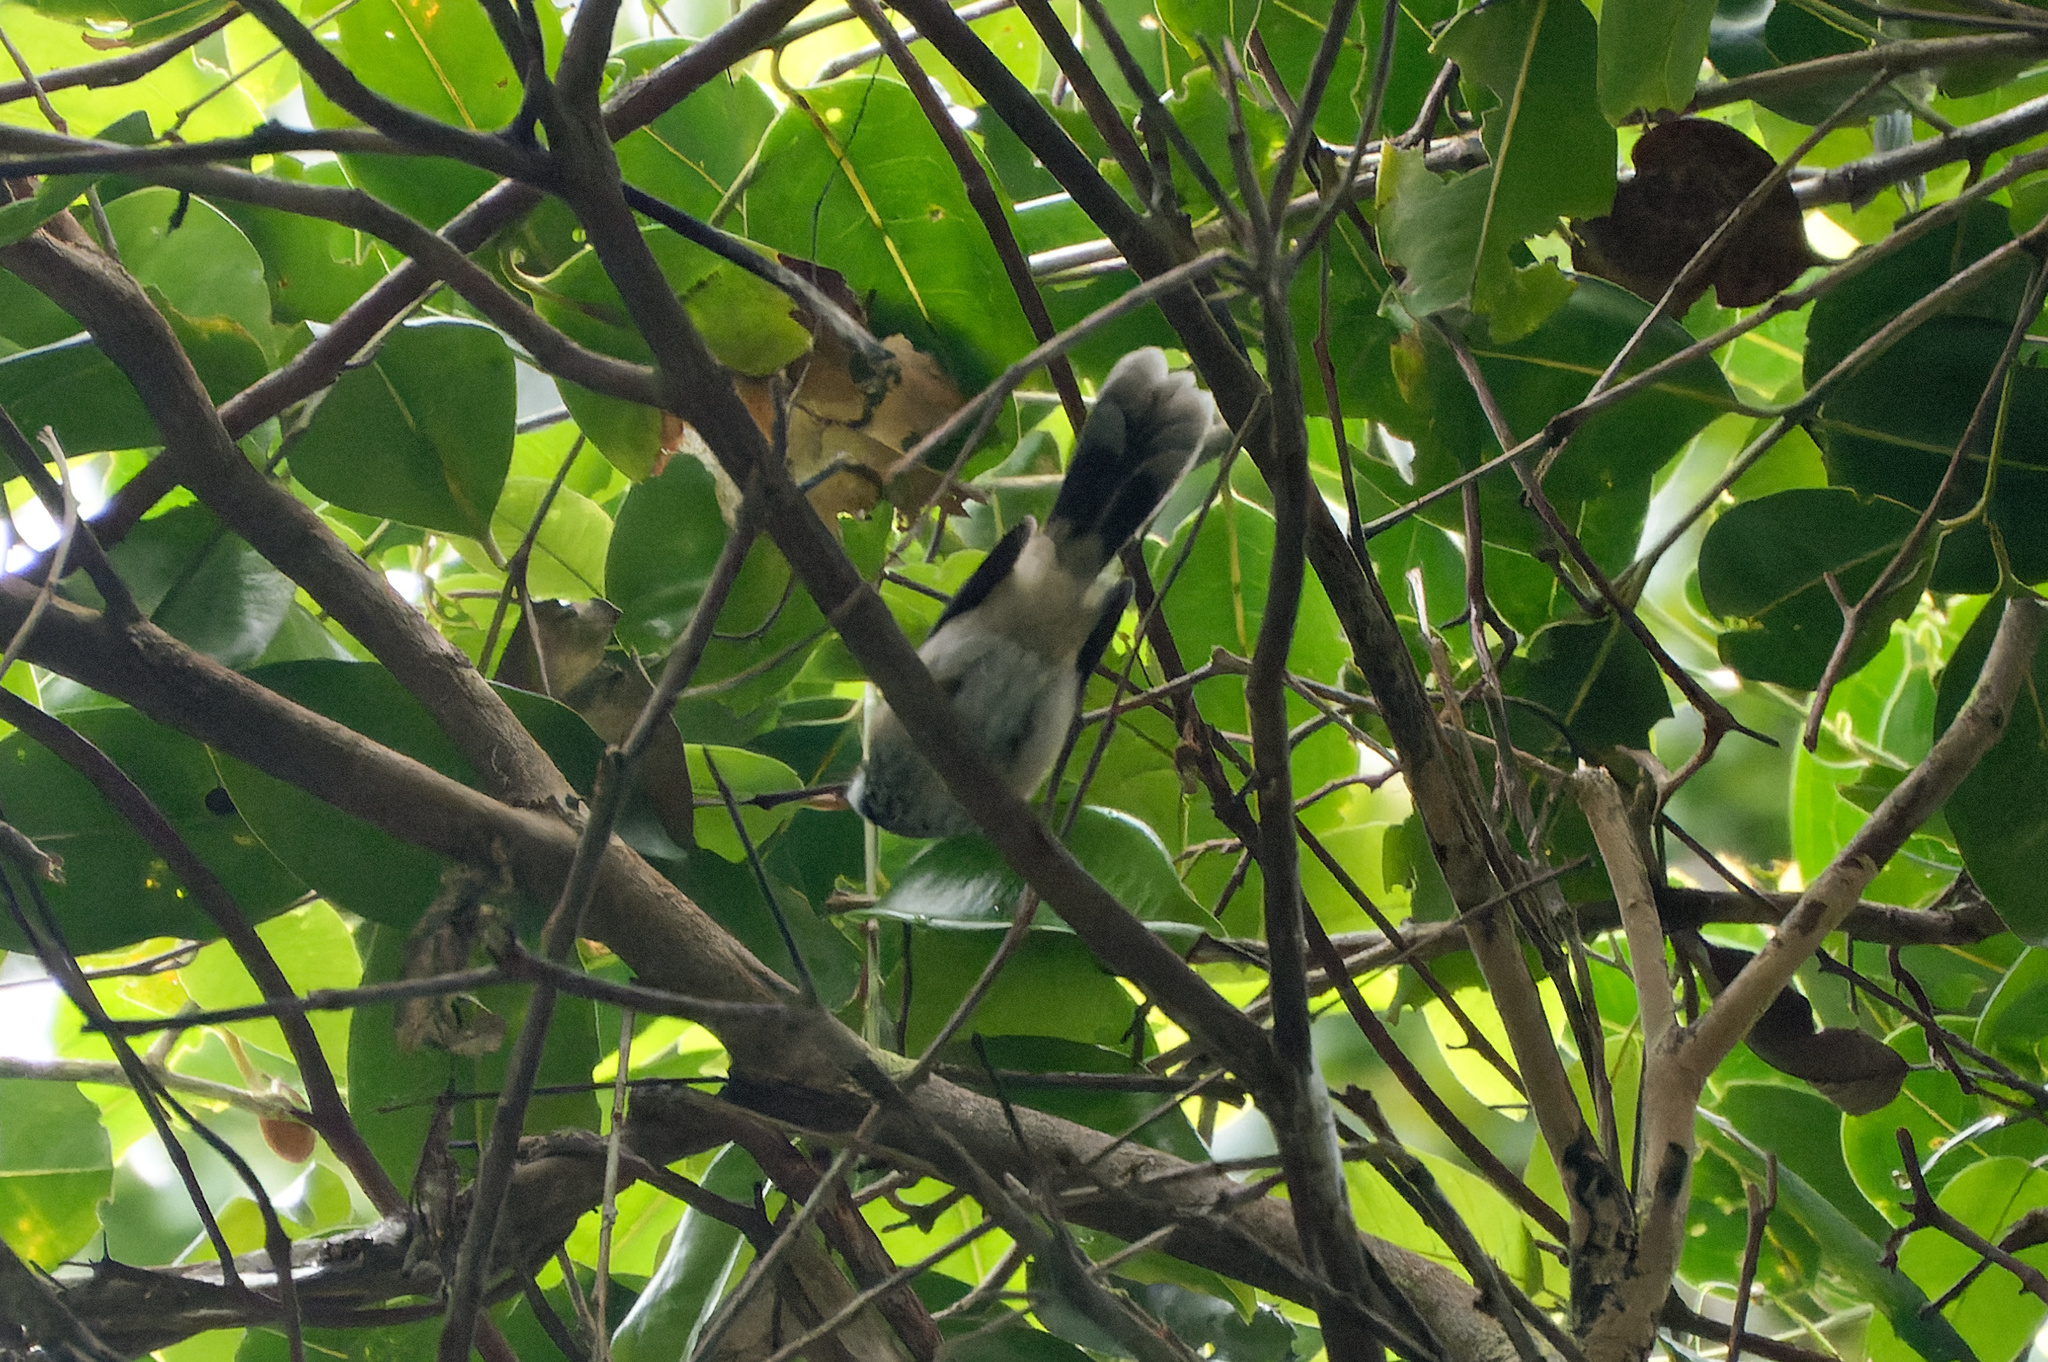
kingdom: Animalia
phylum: Chordata
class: Aves
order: Passeriformes
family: Rhipiduridae
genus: Rhipidura
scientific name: Rhipidura rufifrons
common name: Rufous fantail
